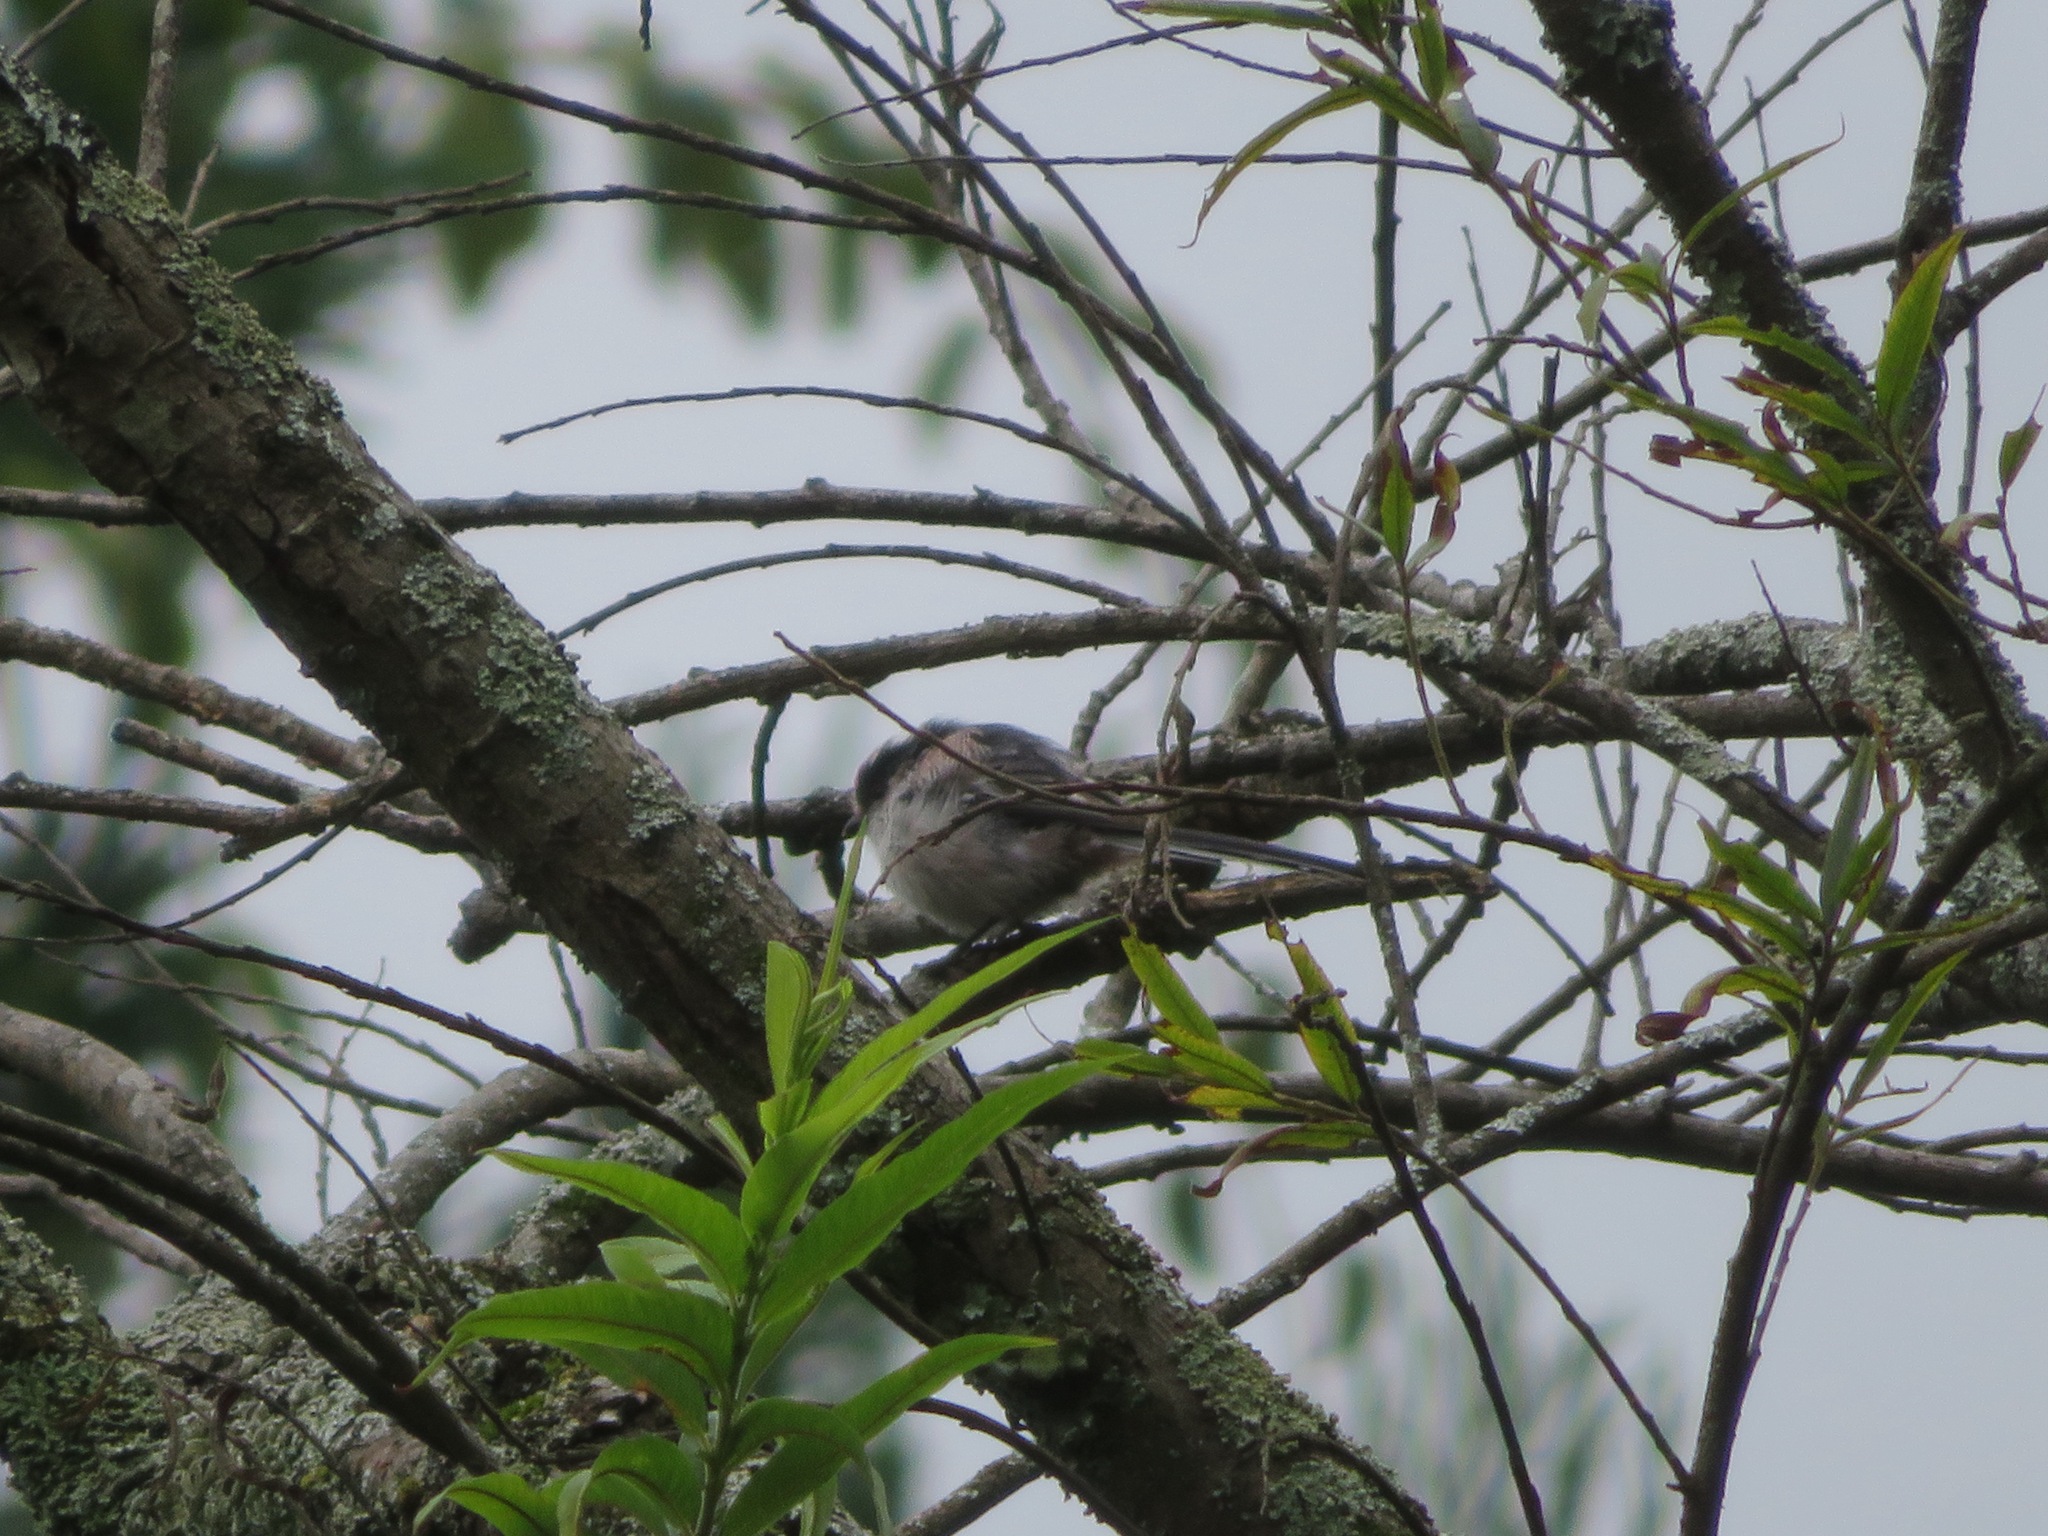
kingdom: Animalia
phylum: Chordata
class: Aves
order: Passeriformes
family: Aegithalidae
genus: Aegithalos
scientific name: Aegithalos caudatus
